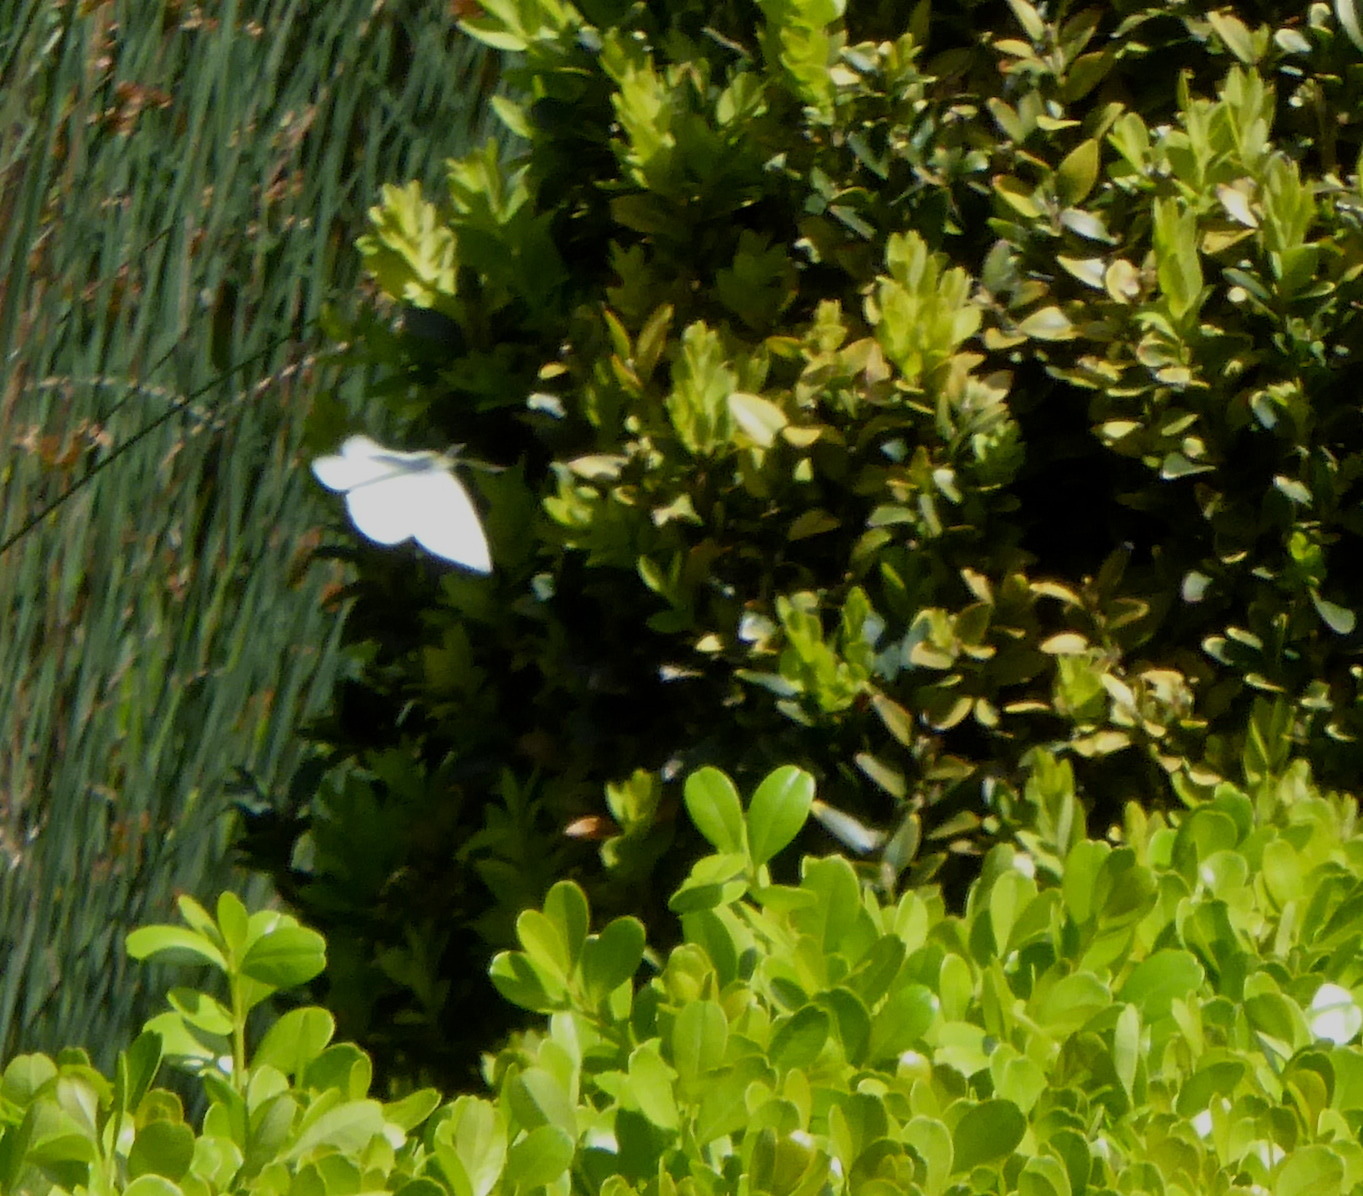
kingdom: Animalia
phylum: Arthropoda
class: Insecta
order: Lepidoptera
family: Pieridae
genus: Pieris
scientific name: Pieris rapae
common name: Small white
